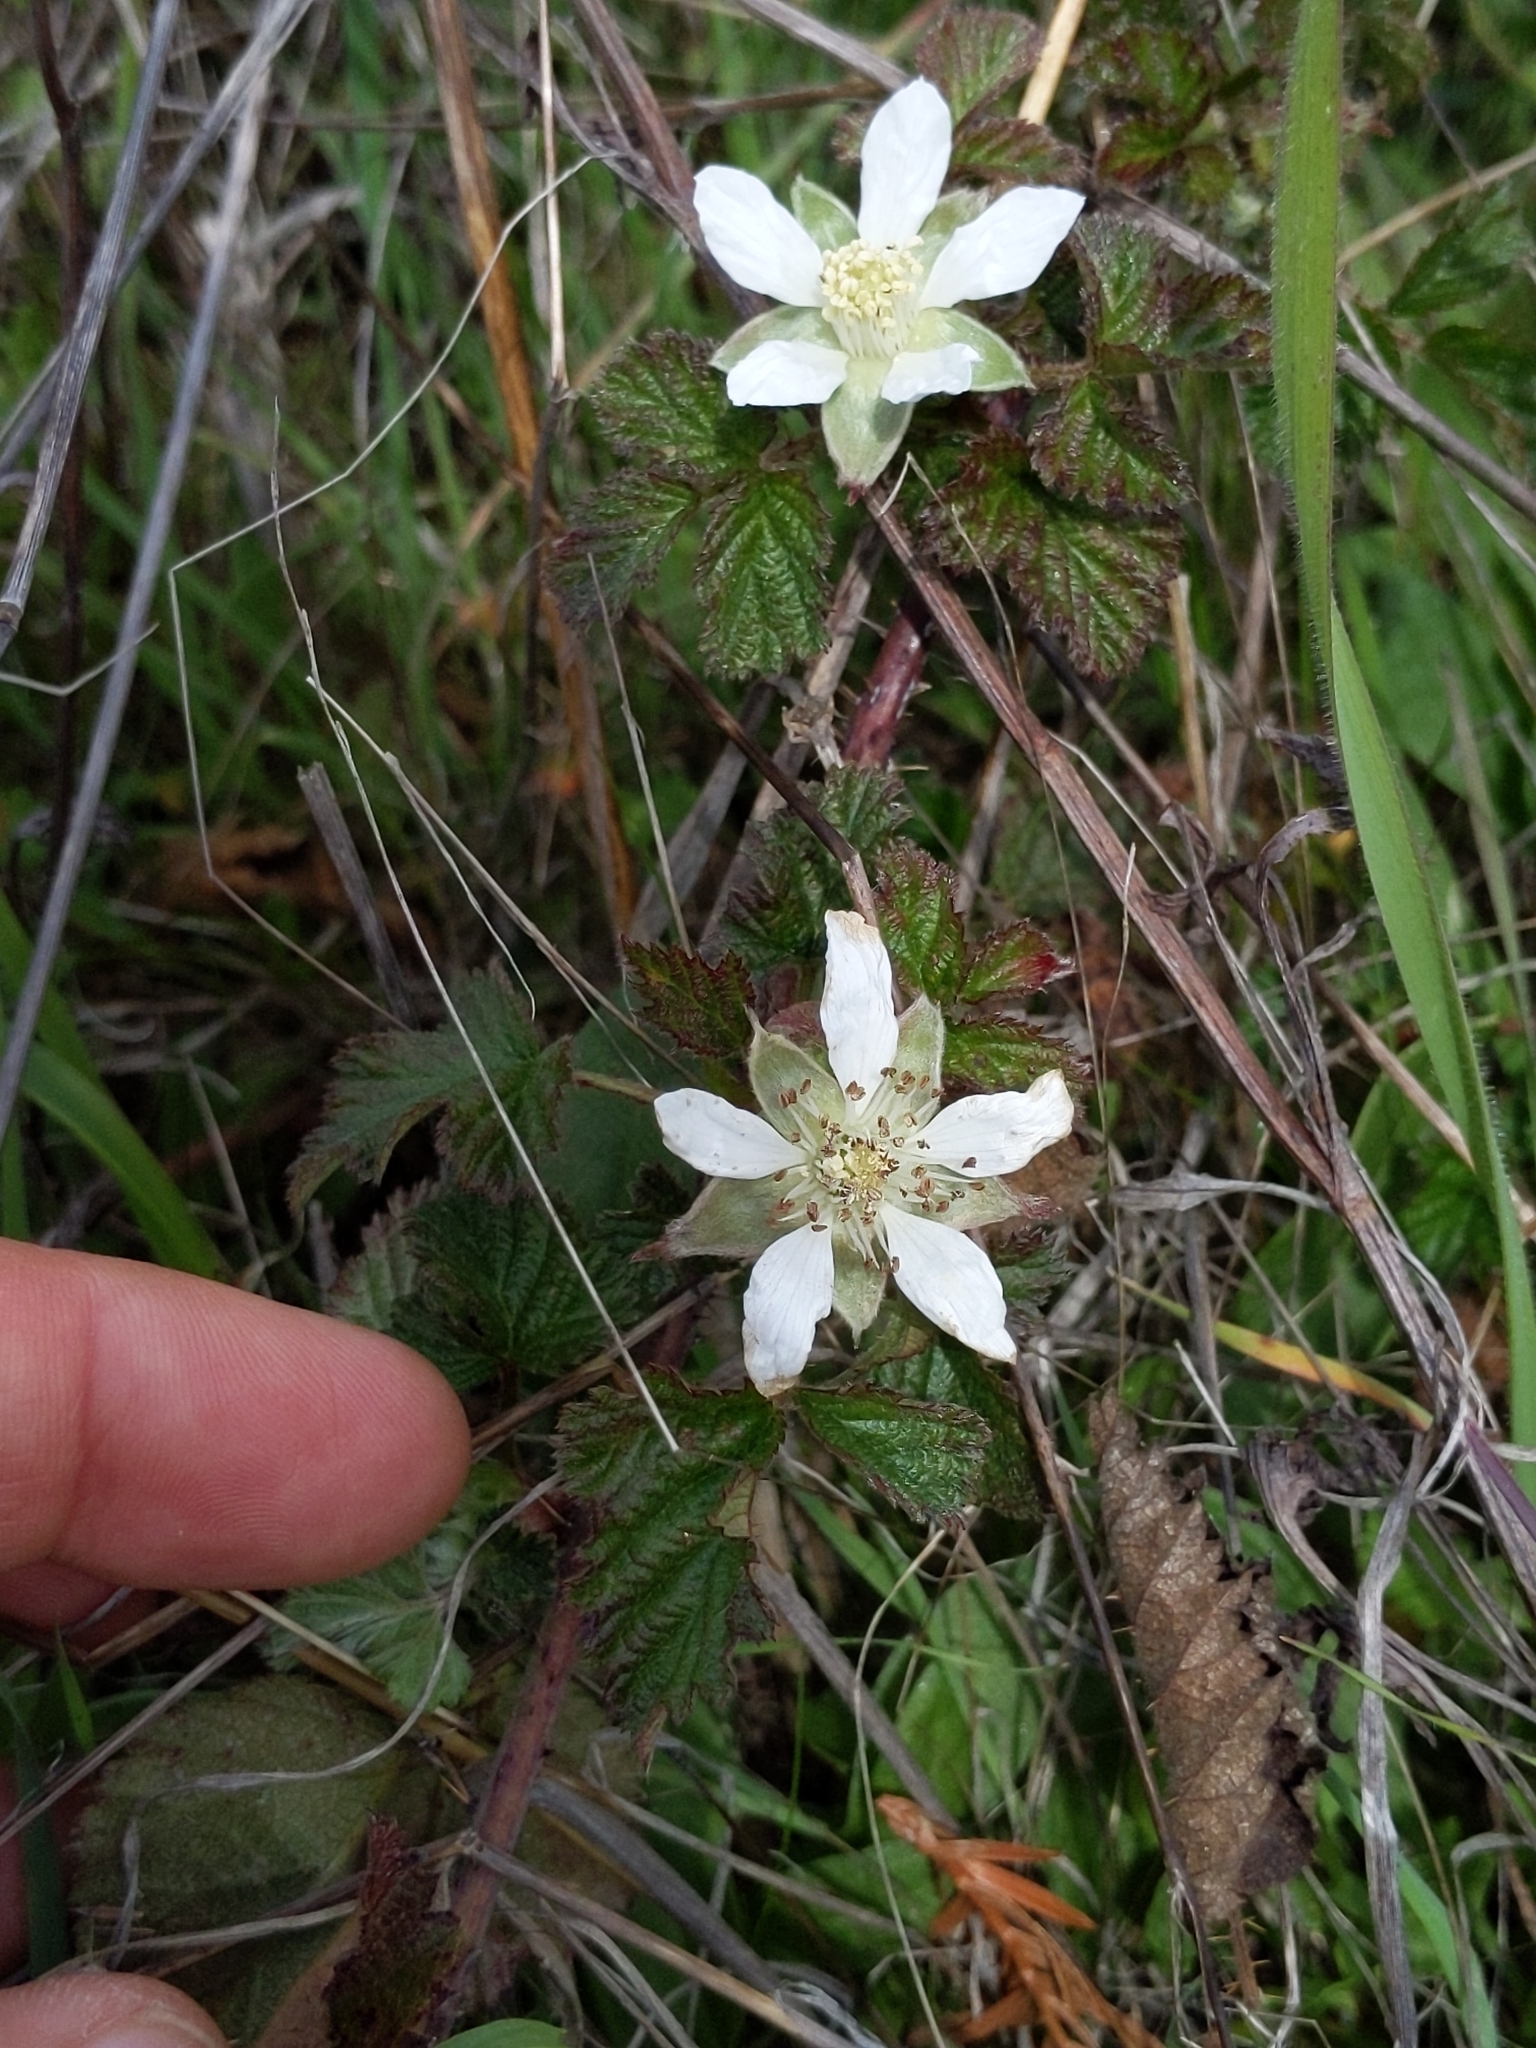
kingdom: Plantae
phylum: Tracheophyta
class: Magnoliopsida
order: Rosales
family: Rosaceae
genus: Rubus
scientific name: Rubus ursinus
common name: Pacific blackberry
